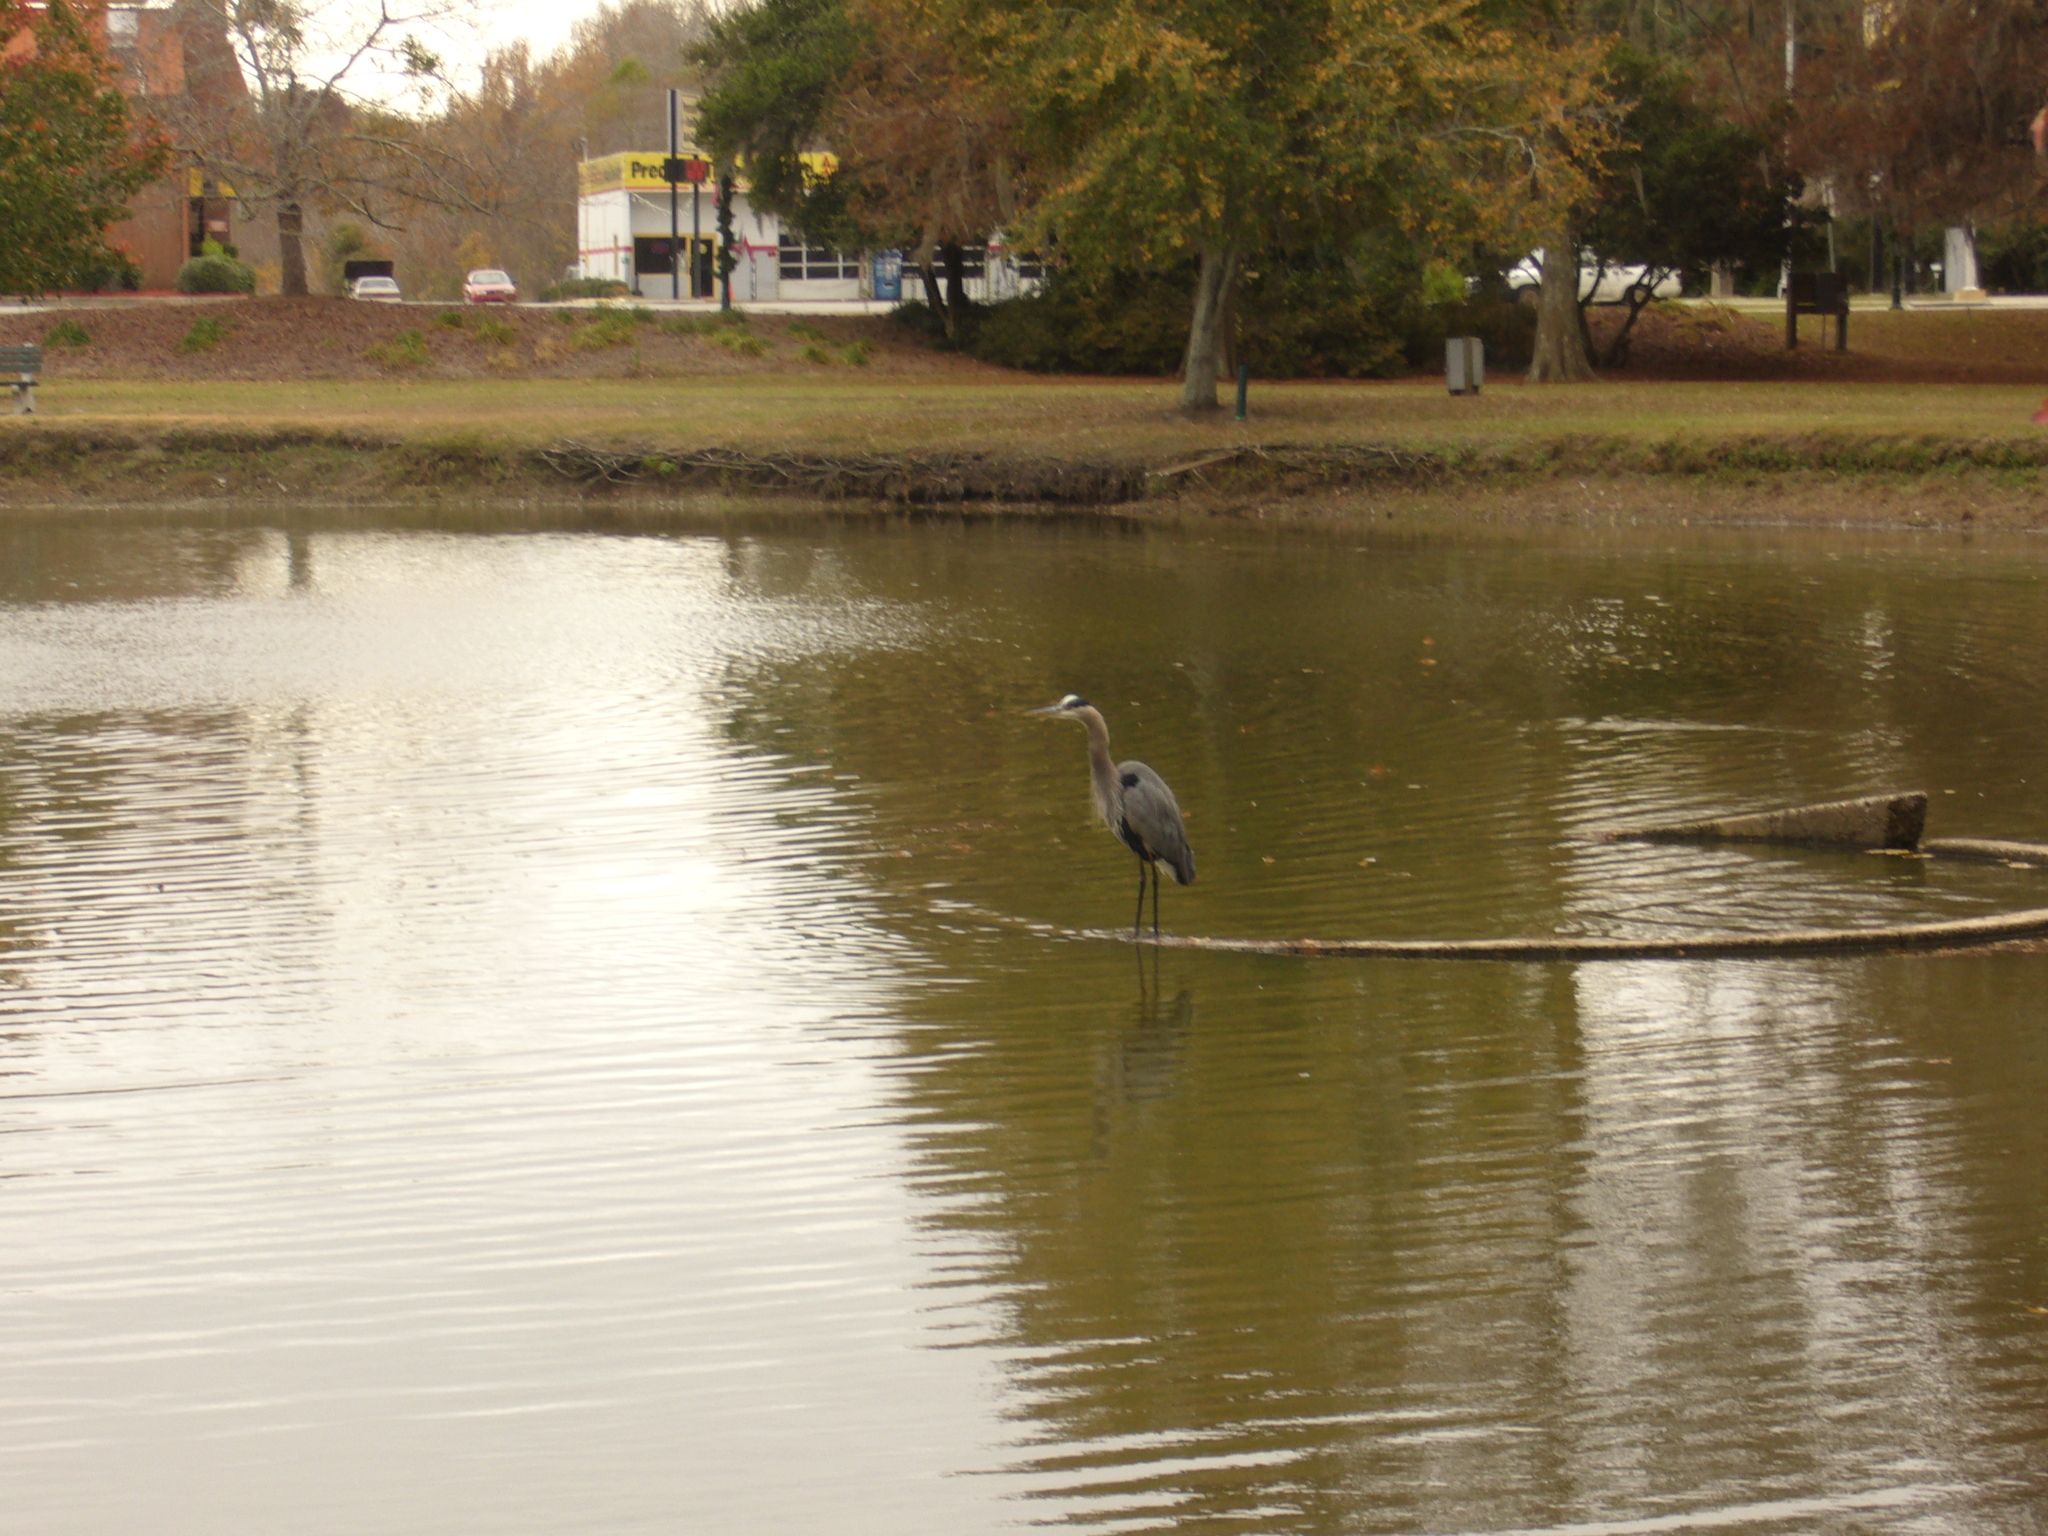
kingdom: Animalia
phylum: Chordata
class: Aves
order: Pelecaniformes
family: Ardeidae
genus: Ardea
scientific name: Ardea herodias
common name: Great blue heron
